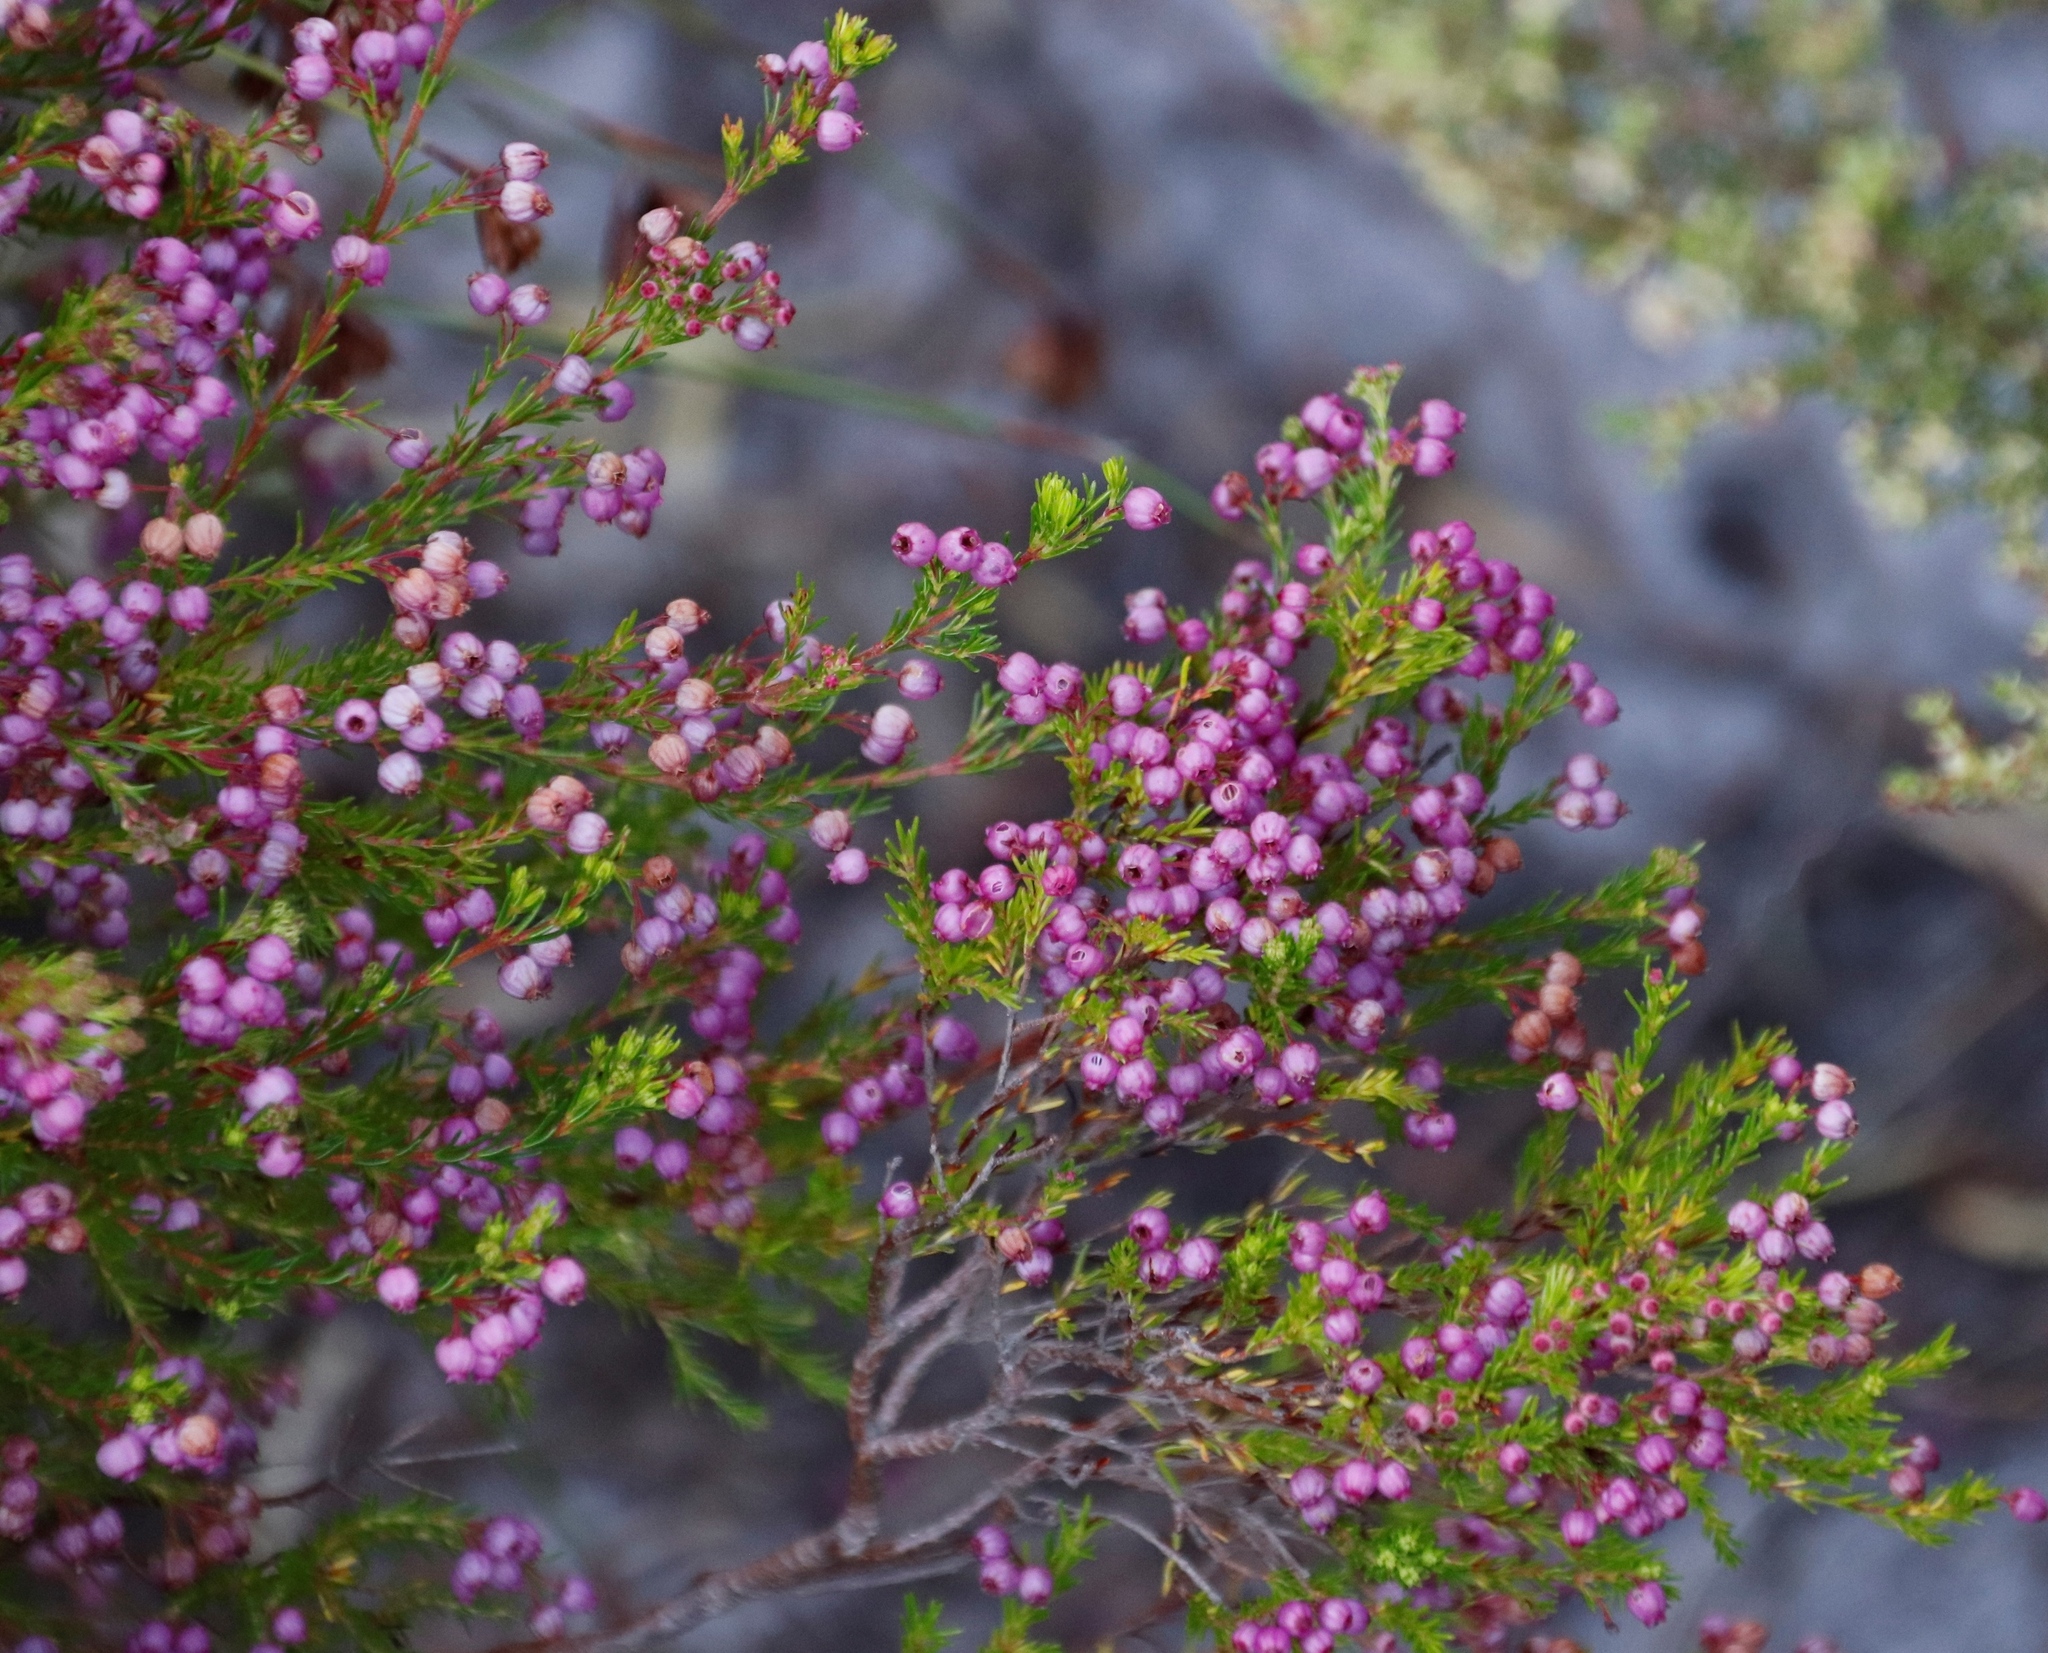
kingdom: Plantae
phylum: Tracheophyta
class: Magnoliopsida
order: Ericales
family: Ericaceae
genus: Erica
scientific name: Erica multumbellifera
